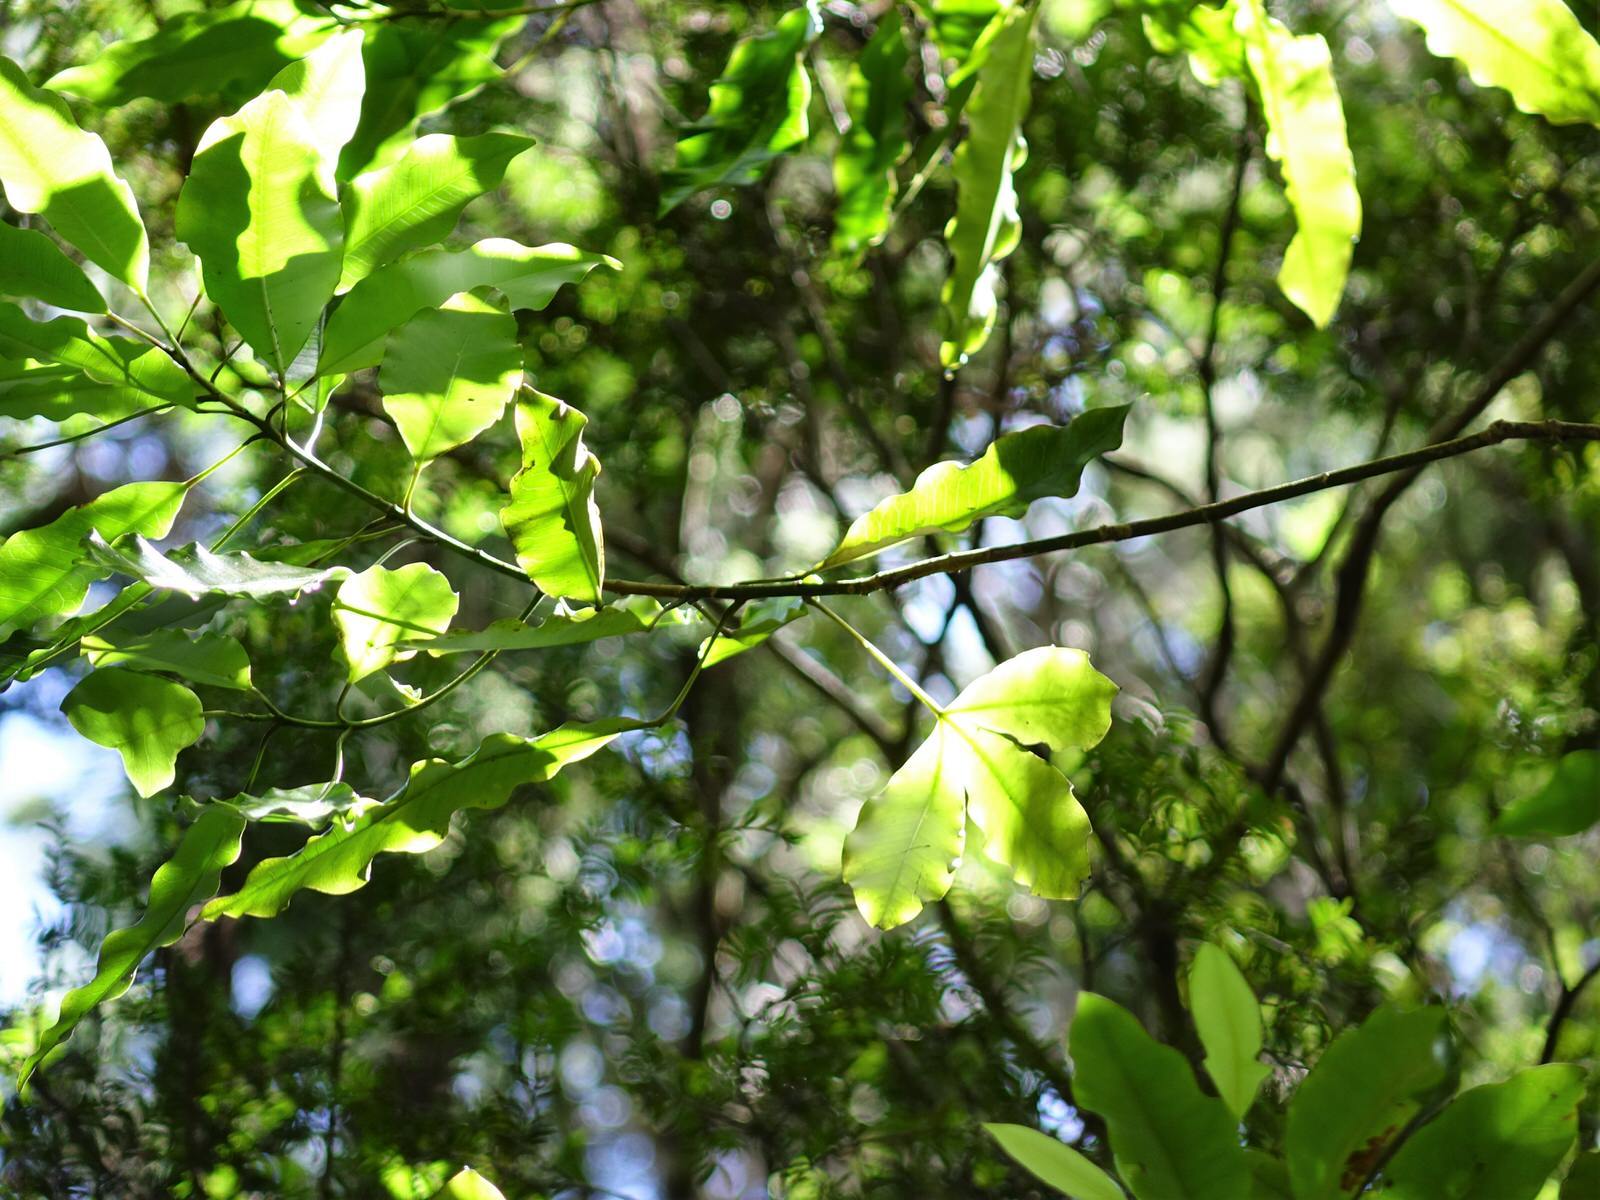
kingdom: Plantae
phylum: Tracheophyta
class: Magnoliopsida
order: Apiales
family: Araliaceae
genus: Raukaua
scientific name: Raukaua edgerleyi
